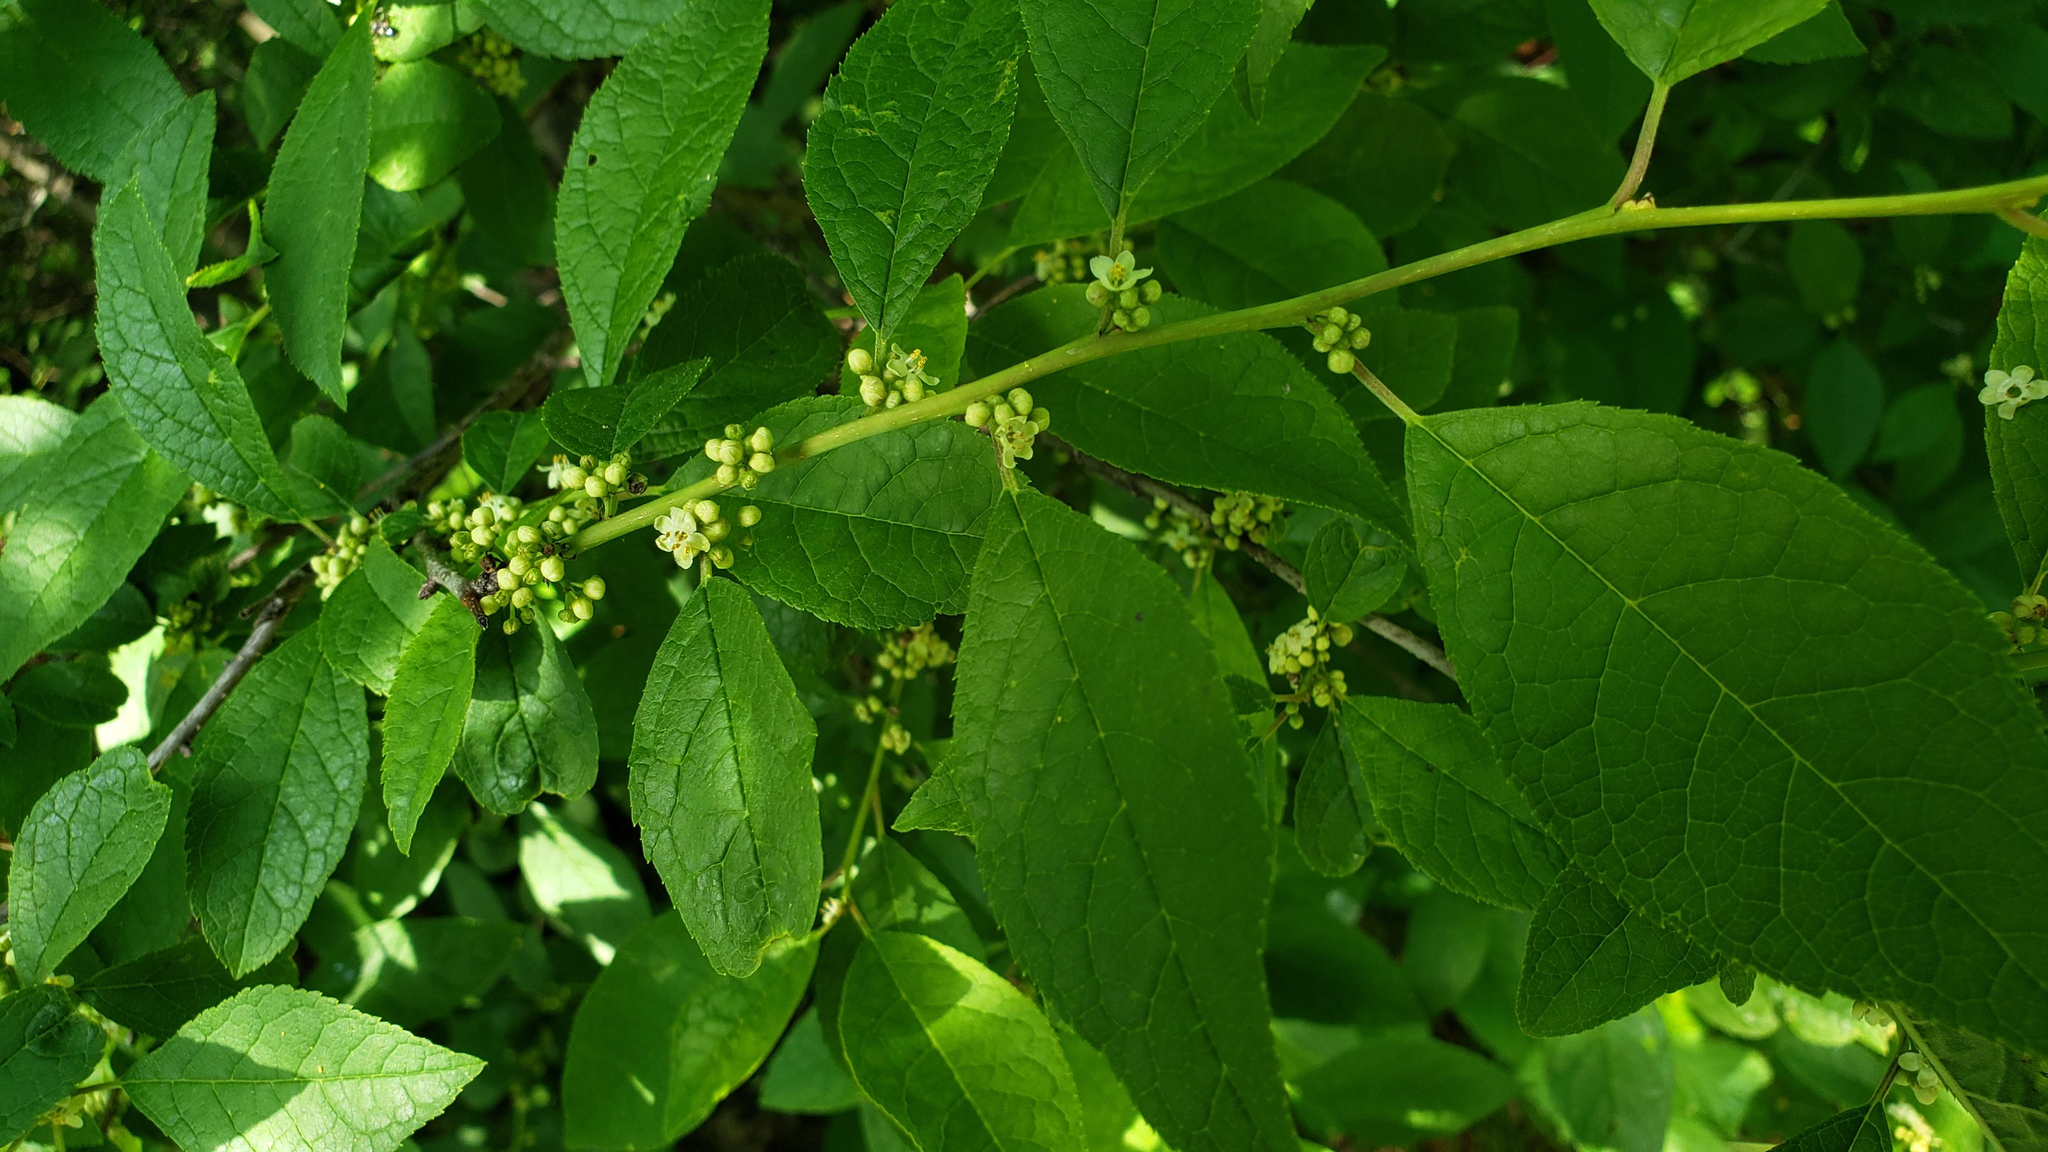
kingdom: Plantae
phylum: Tracheophyta
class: Magnoliopsida
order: Aquifoliales
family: Aquifoliaceae
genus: Ilex
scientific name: Ilex verticillata
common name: Virginia winterberry
